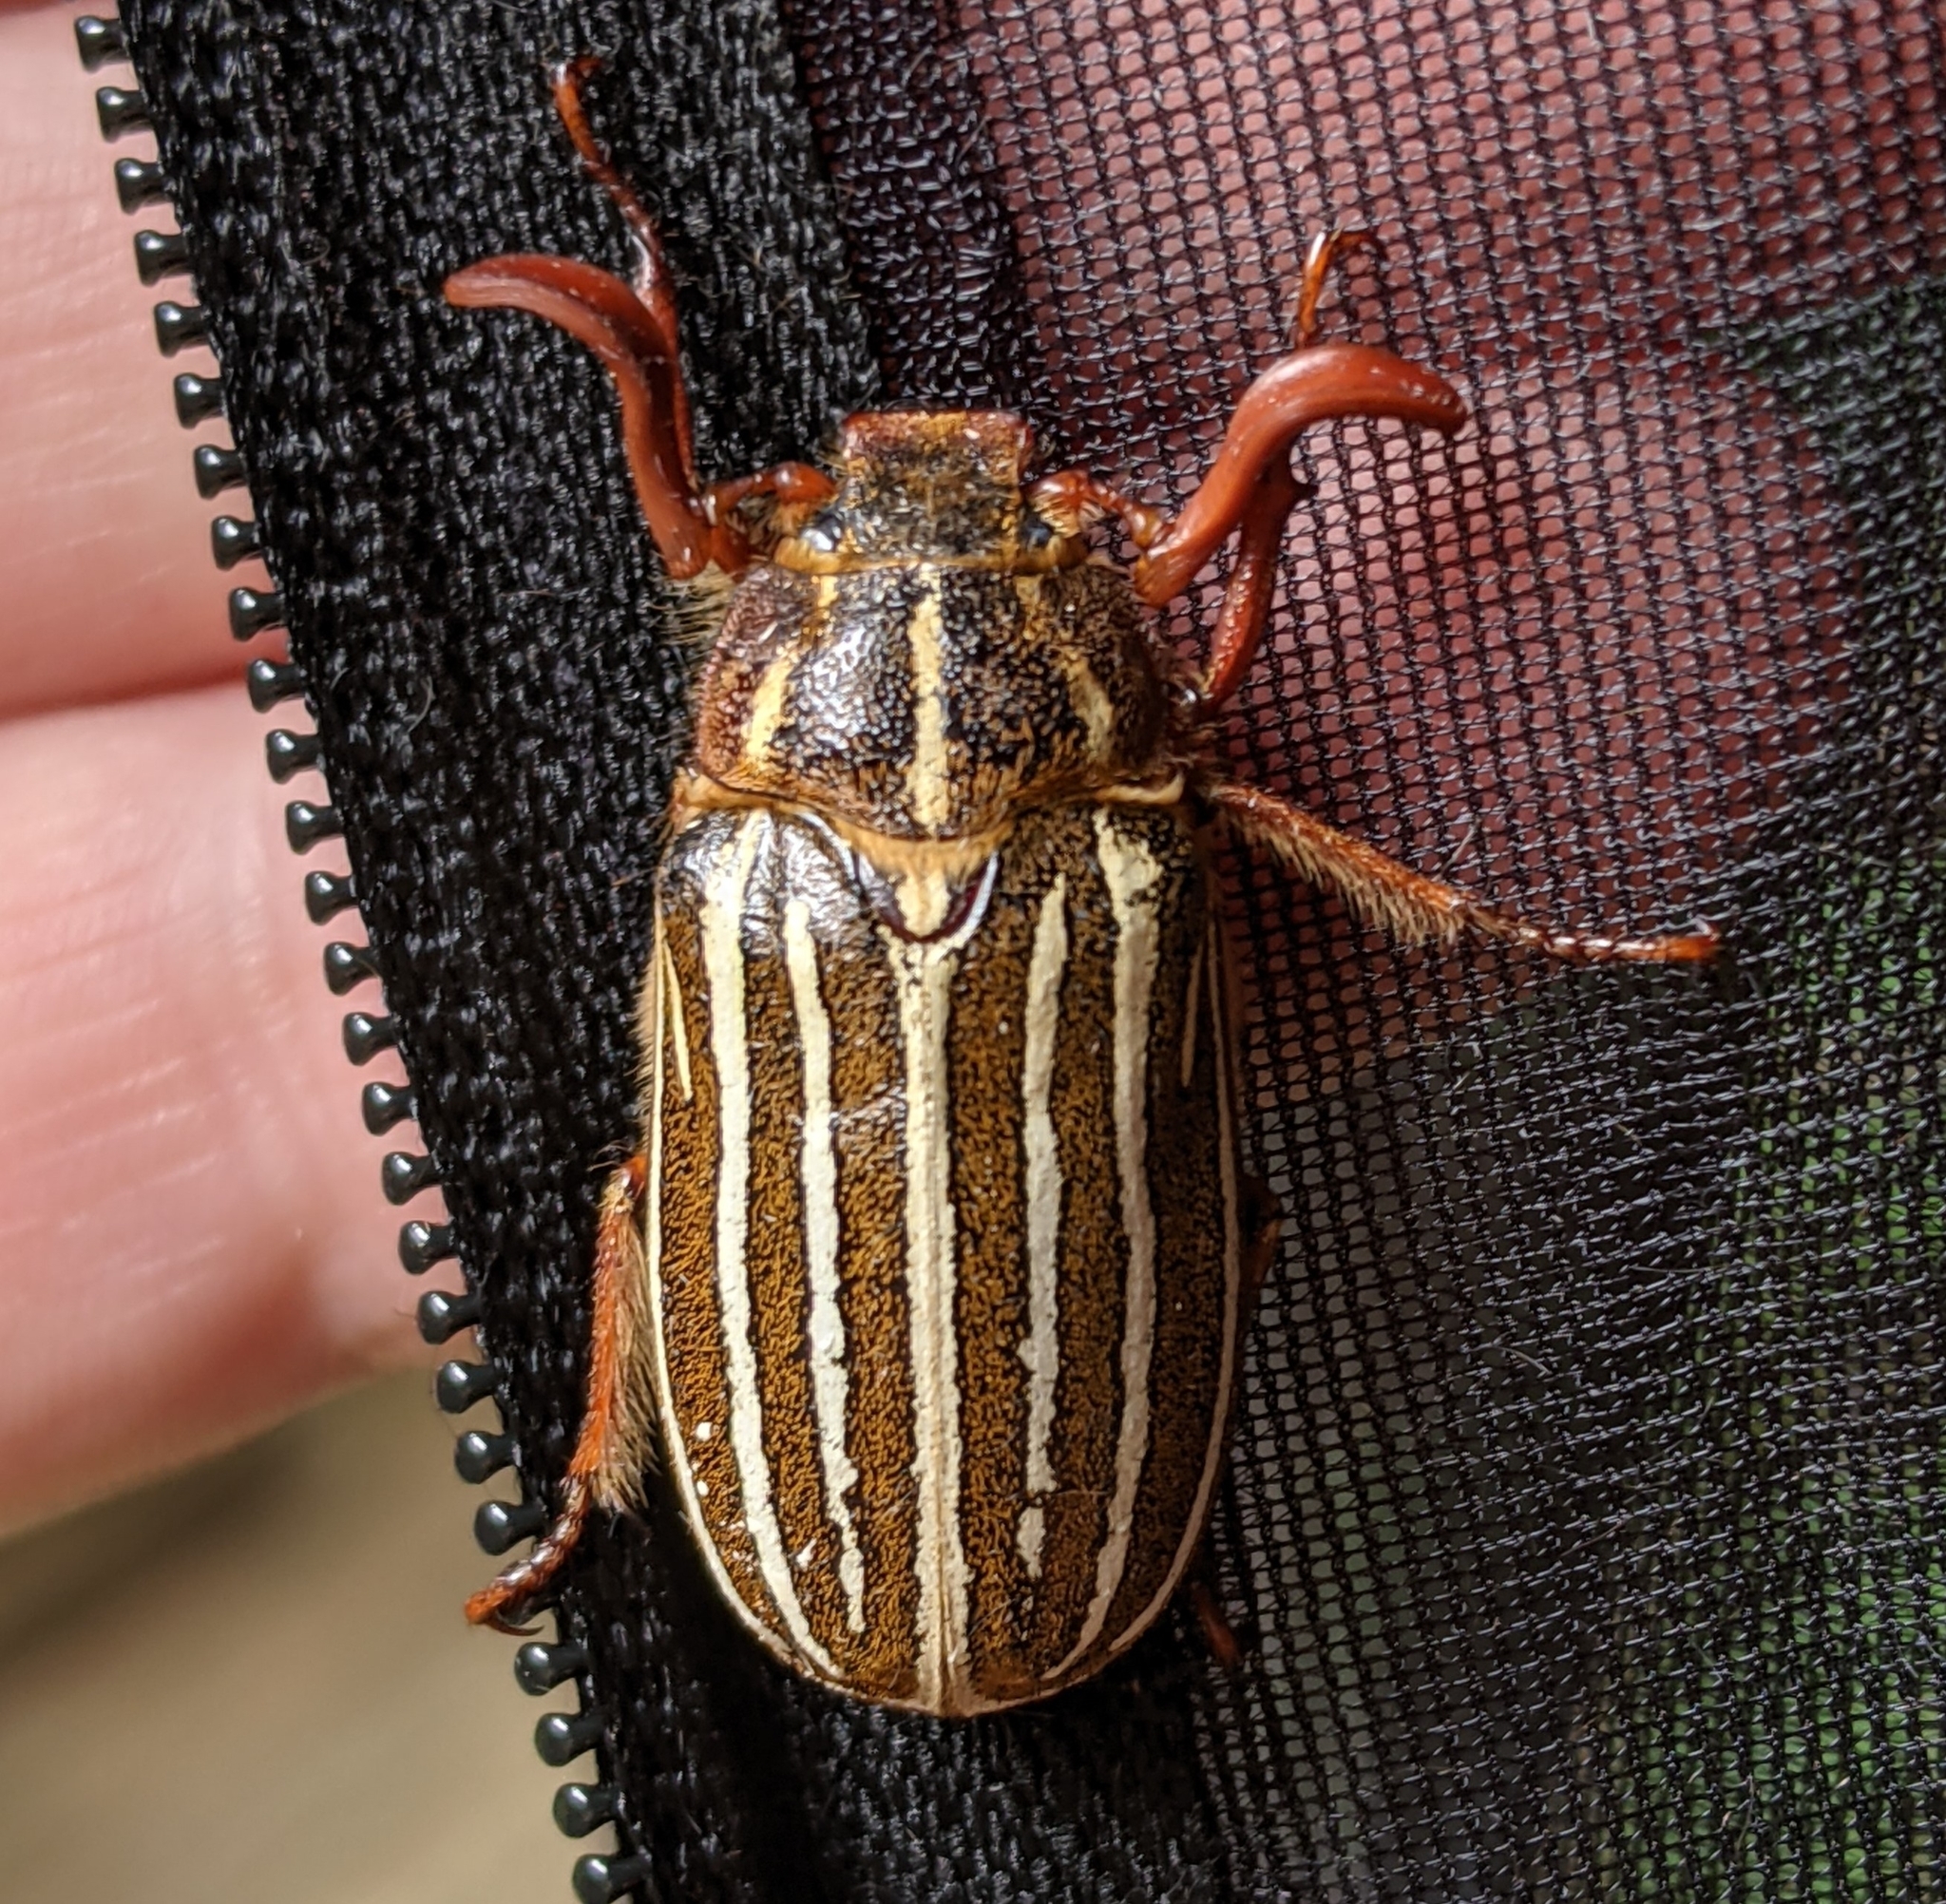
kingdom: Animalia
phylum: Arthropoda
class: Insecta
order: Coleoptera
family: Scarabaeidae
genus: Polyphylla
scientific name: Polyphylla crinita
